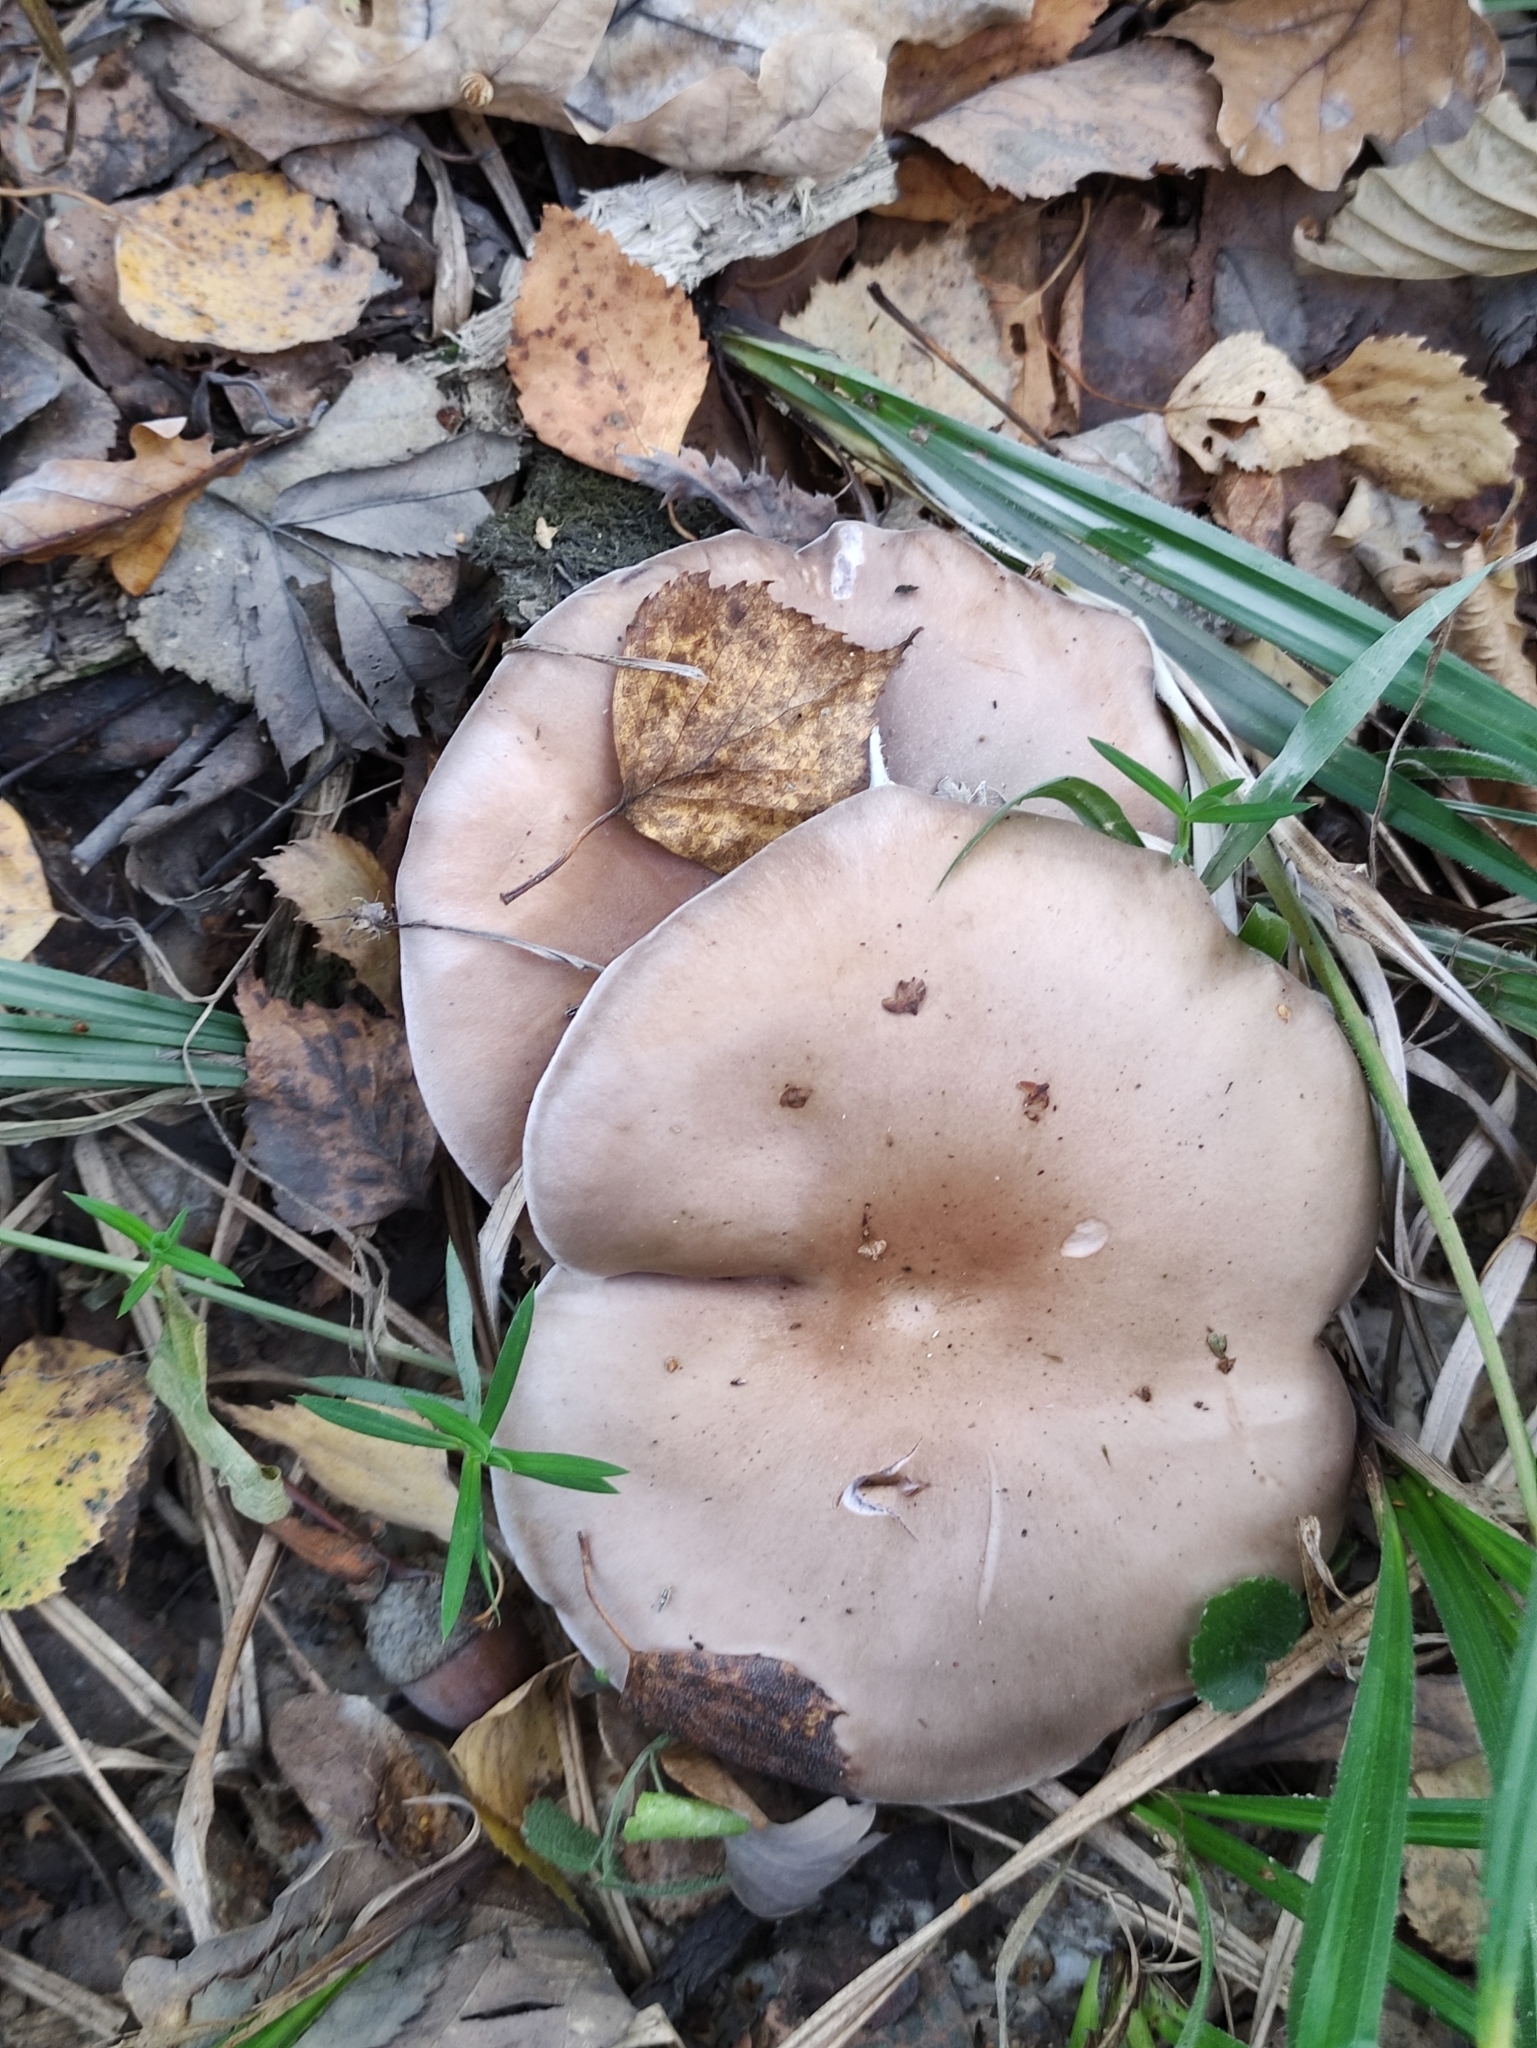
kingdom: Fungi
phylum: Basidiomycota
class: Agaricomycetes
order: Agaricales
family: Tricholomataceae
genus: Collybia
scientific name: Collybia
